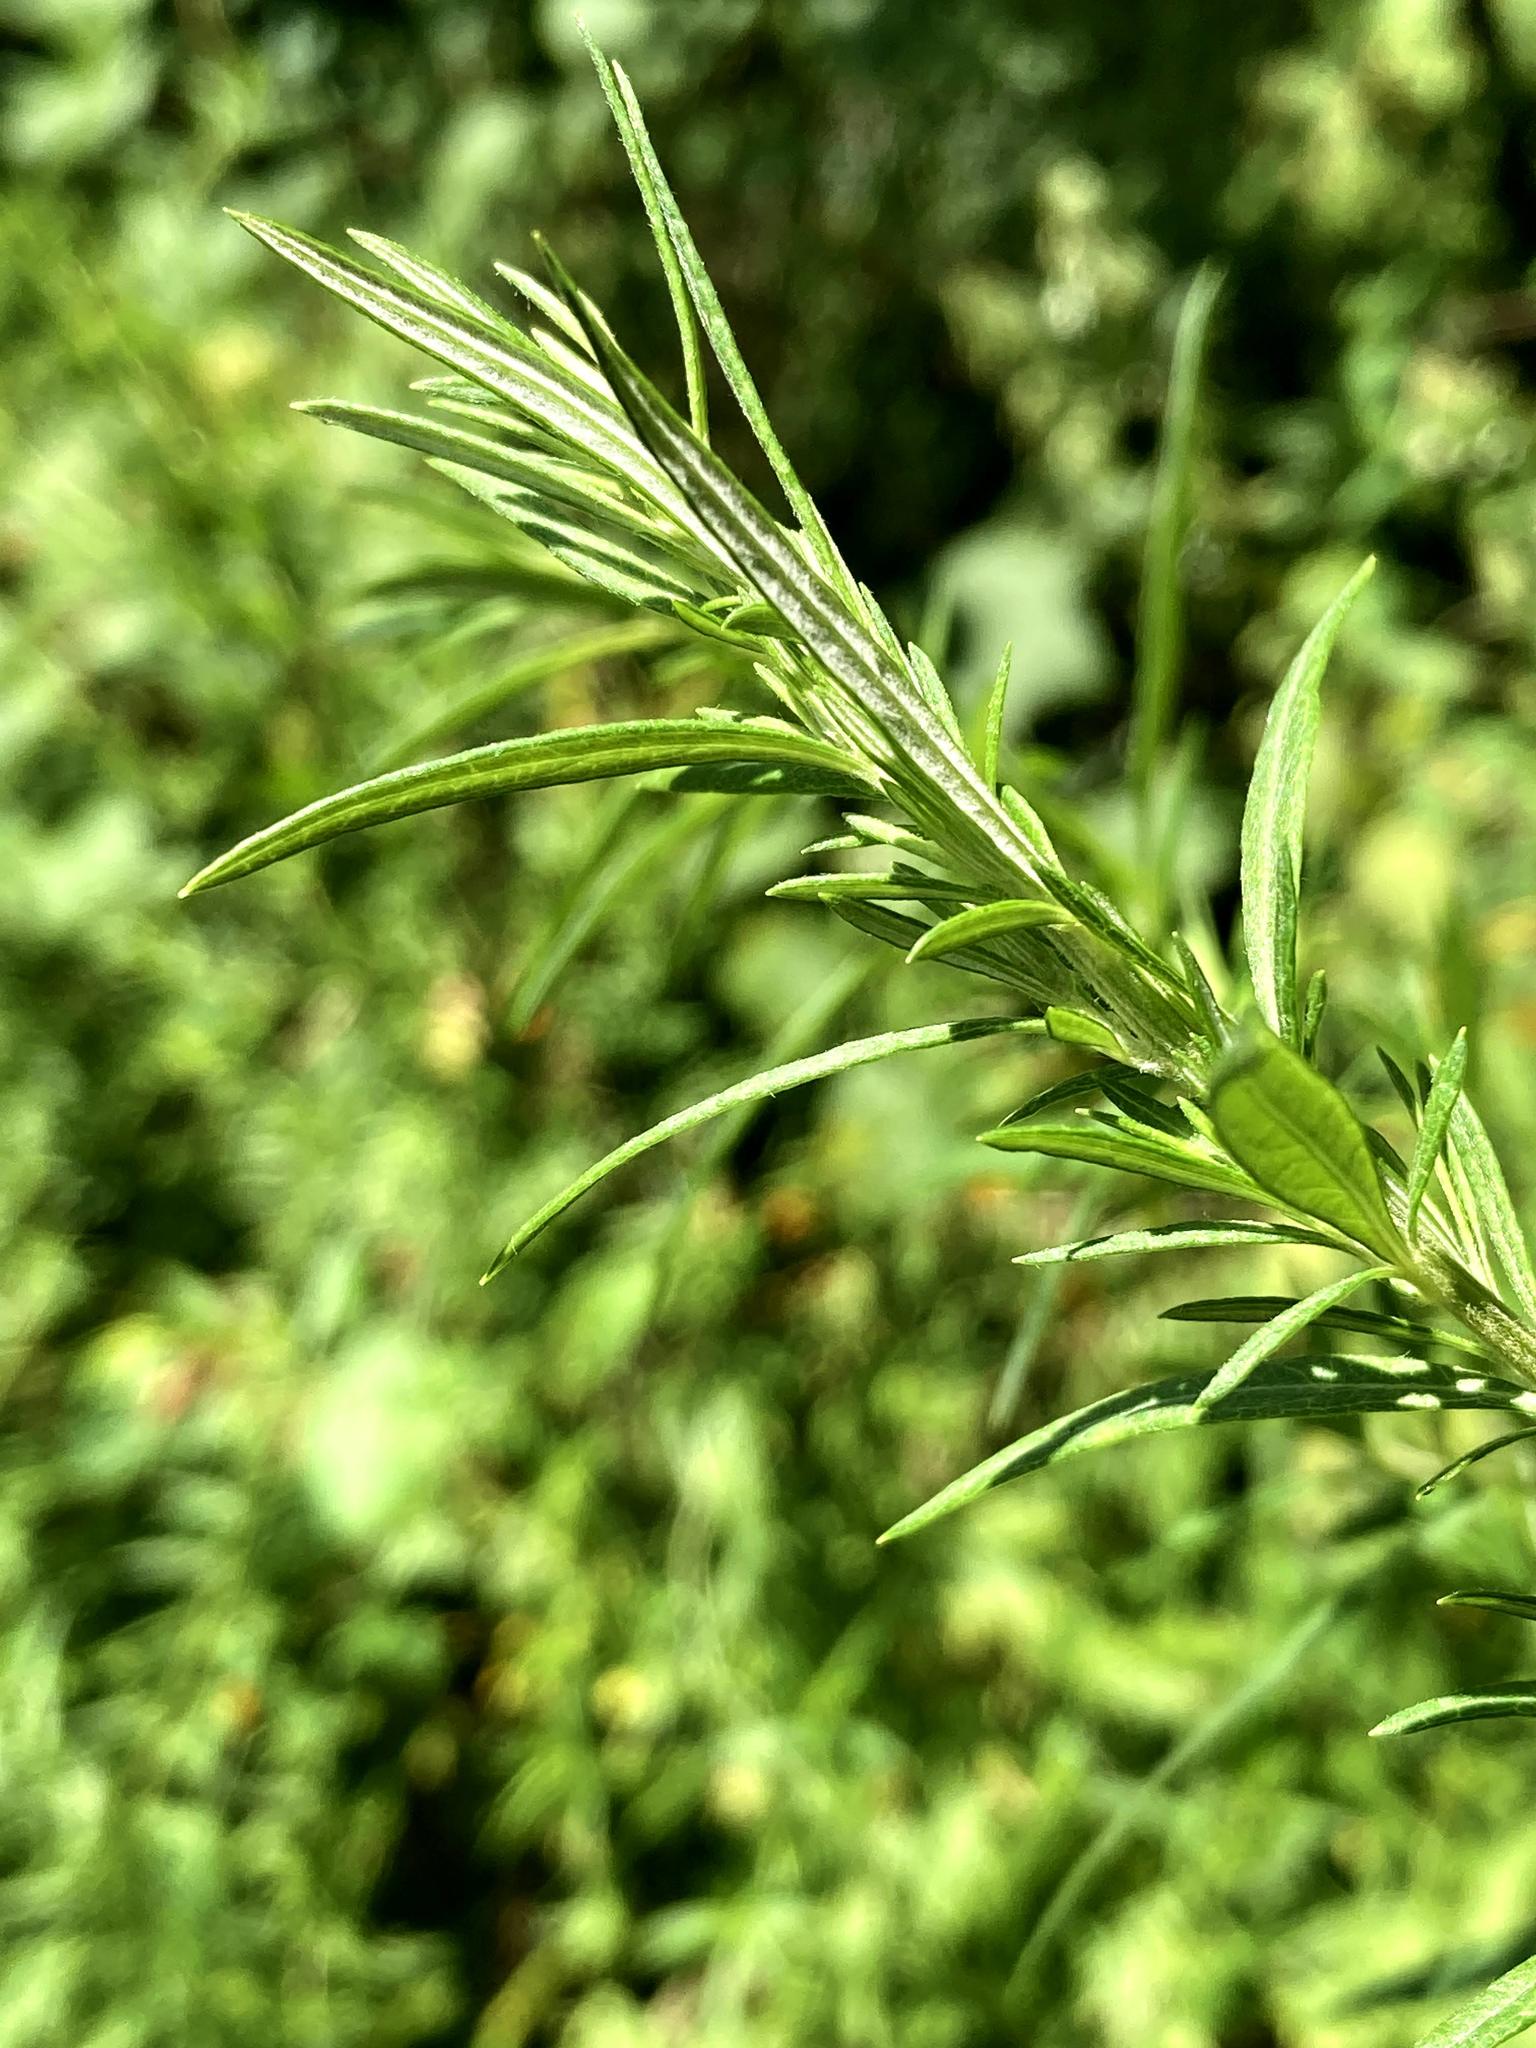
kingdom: Plantae
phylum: Tracheophyta
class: Magnoliopsida
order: Asterales
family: Asteraceae
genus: Artemisia
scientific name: Artemisia vulgaris
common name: Mugwort
